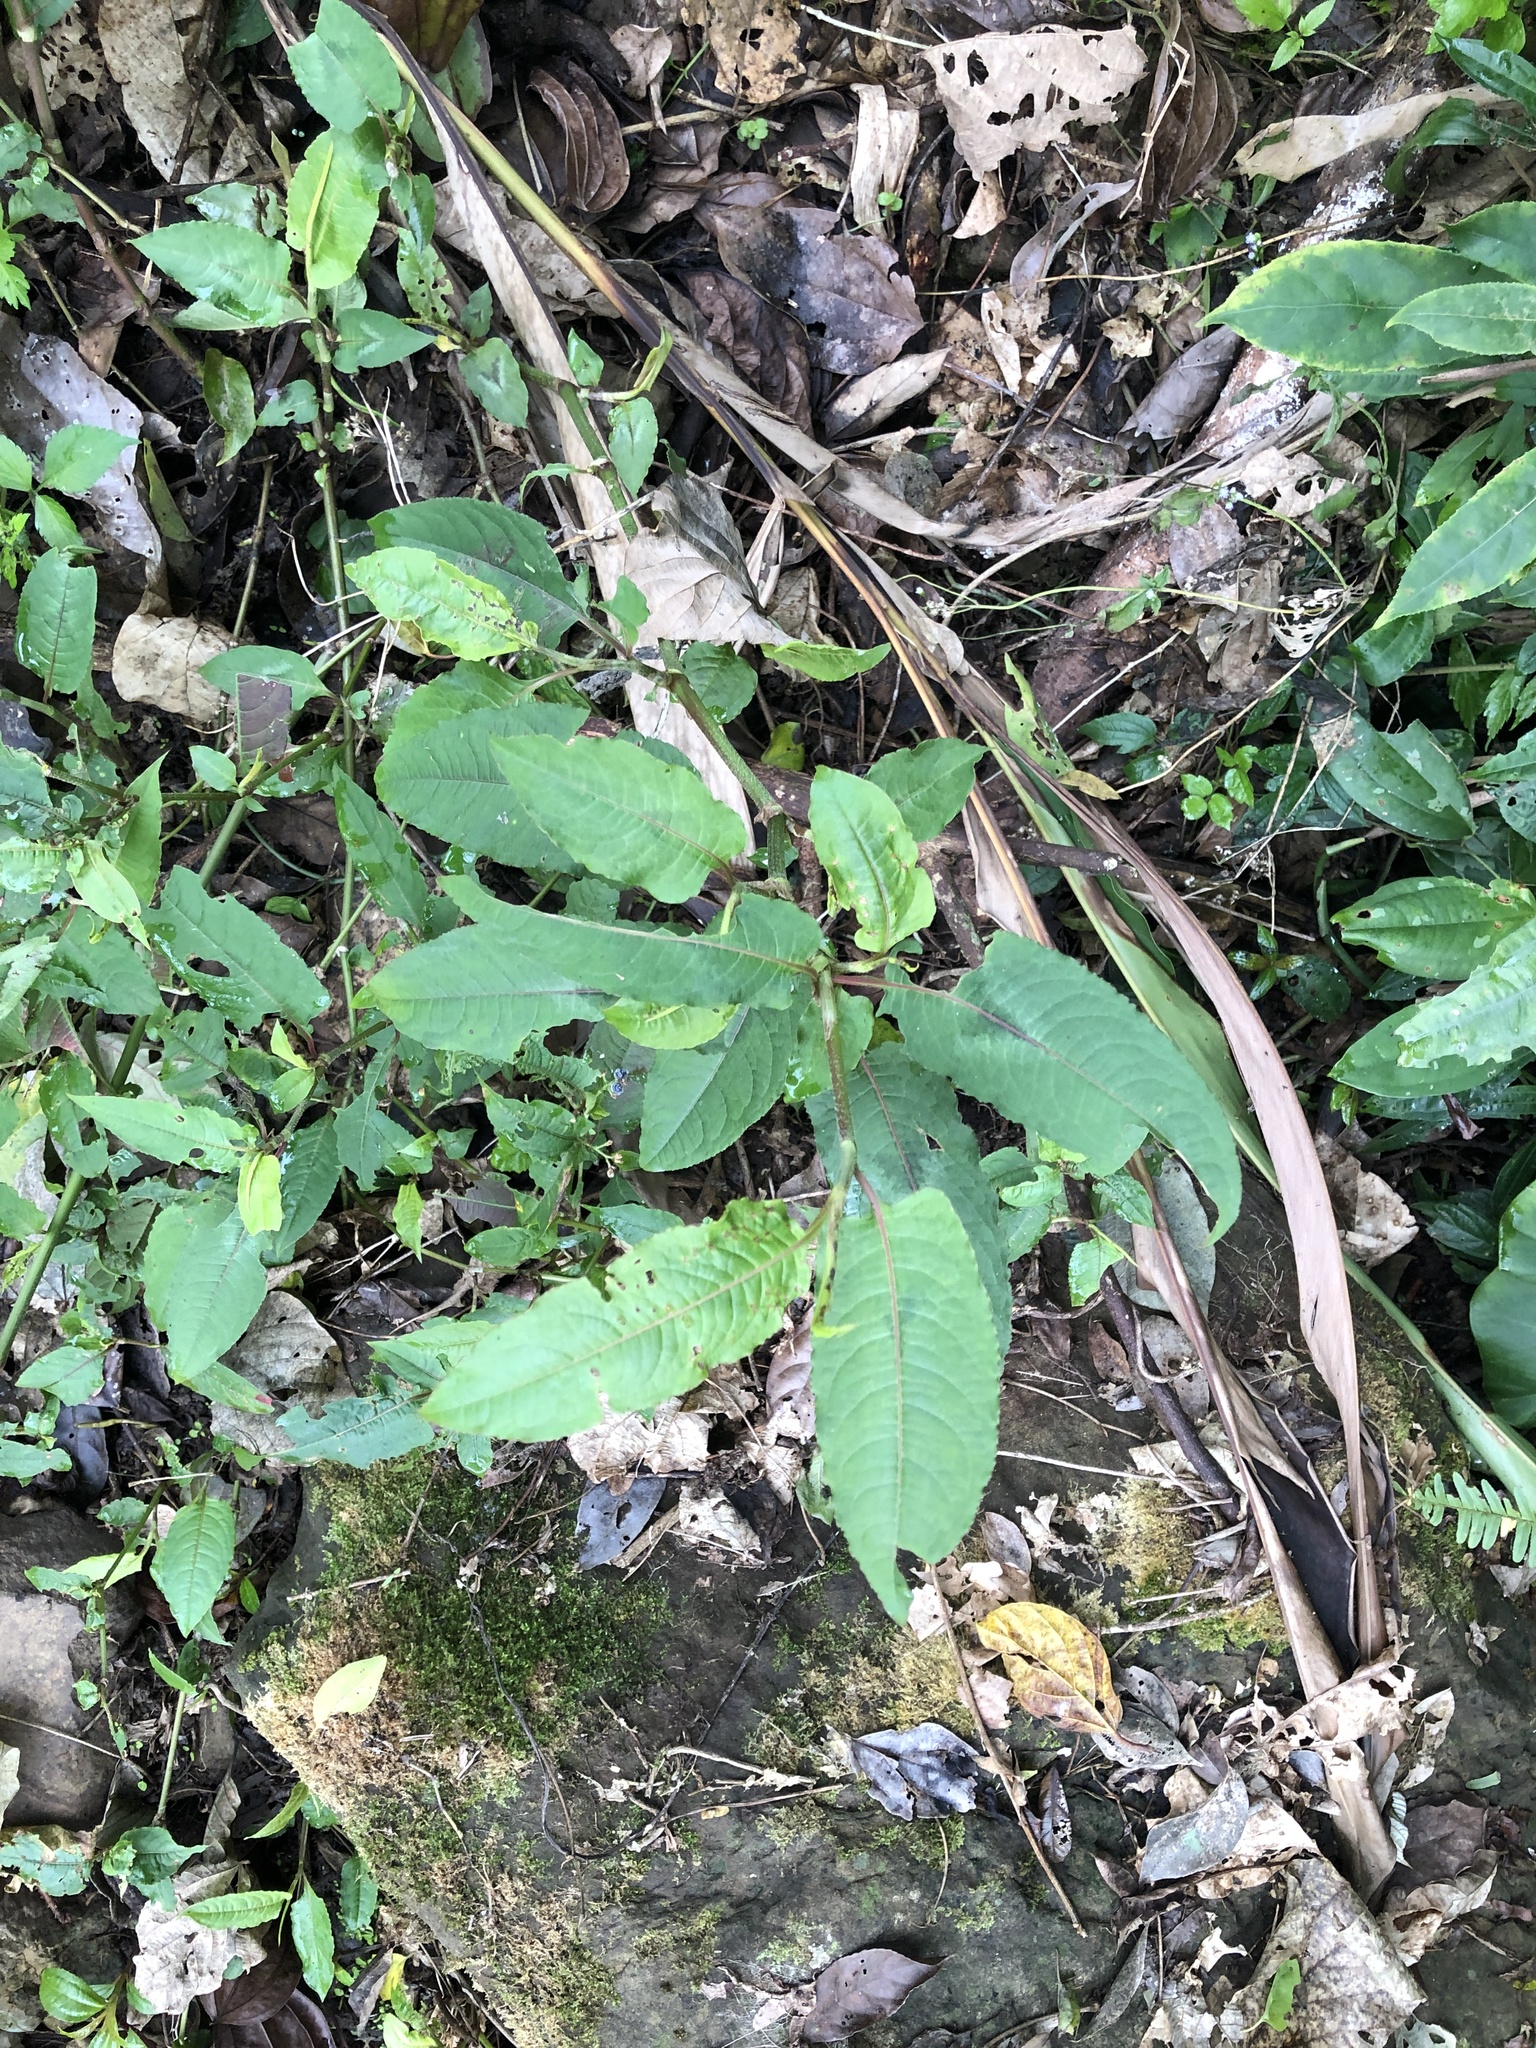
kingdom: Plantae
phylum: Tracheophyta
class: Magnoliopsida
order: Caryophyllales
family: Polygonaceae
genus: Persicaria
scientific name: Persicaria chinensis
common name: Chinese knotweed
